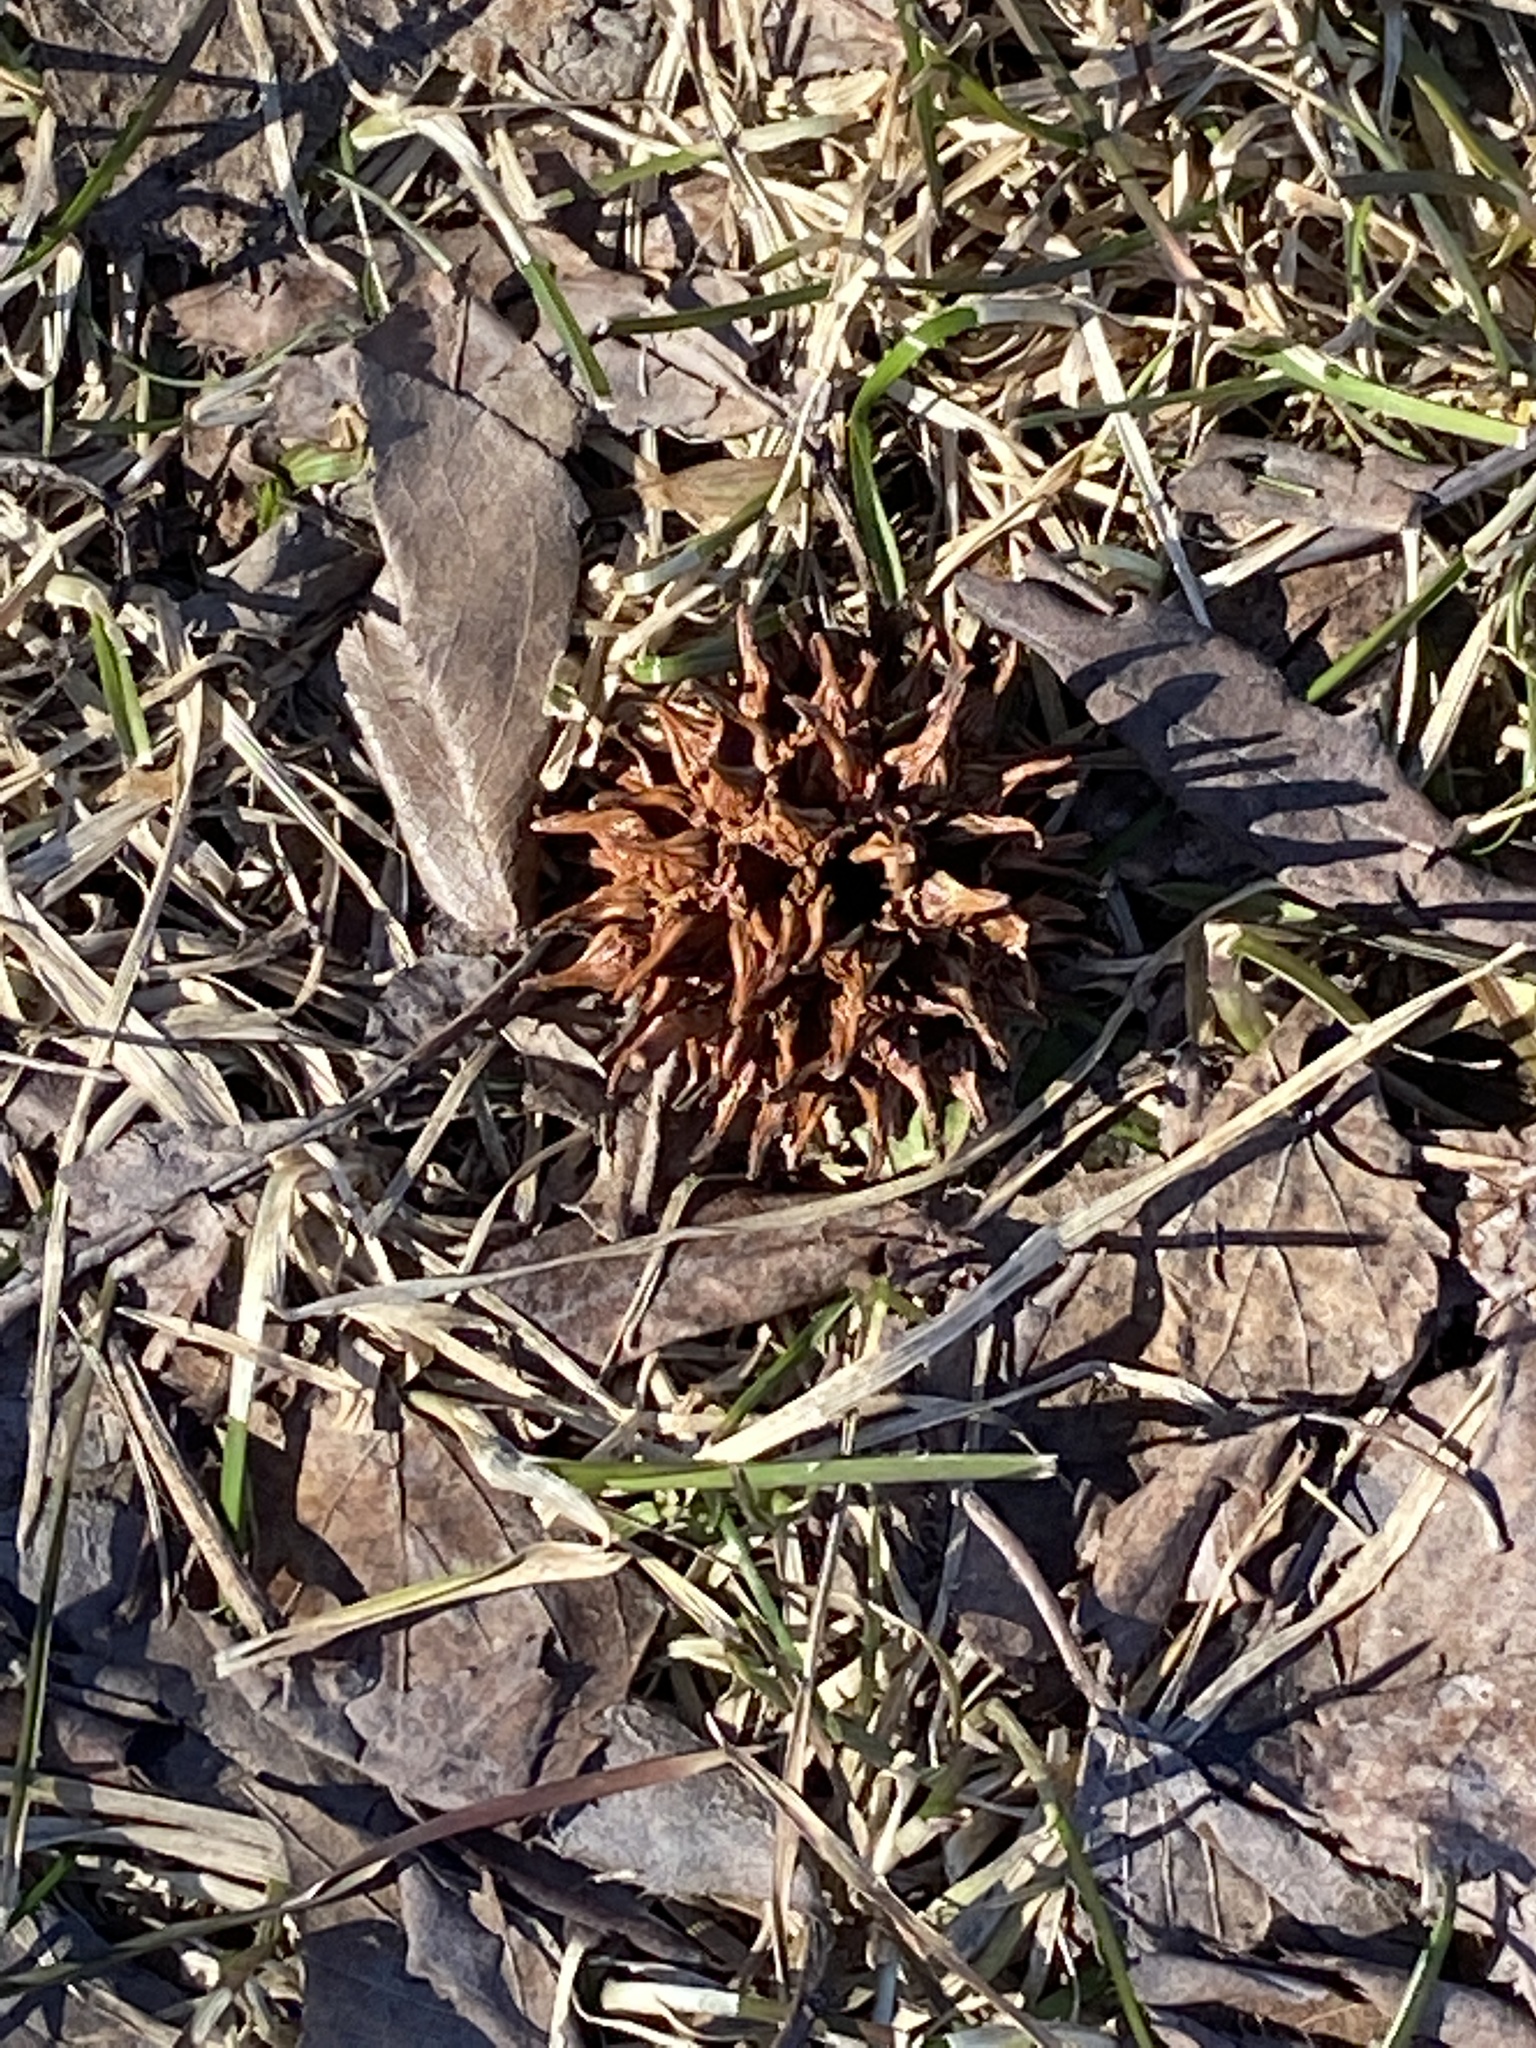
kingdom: Plantae
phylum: Tracheophyta
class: Magnoliopsida
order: Saxifragales
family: Altingiaceae
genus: Liquidambar
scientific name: Liquidambar styraciflua
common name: Sweet gum
